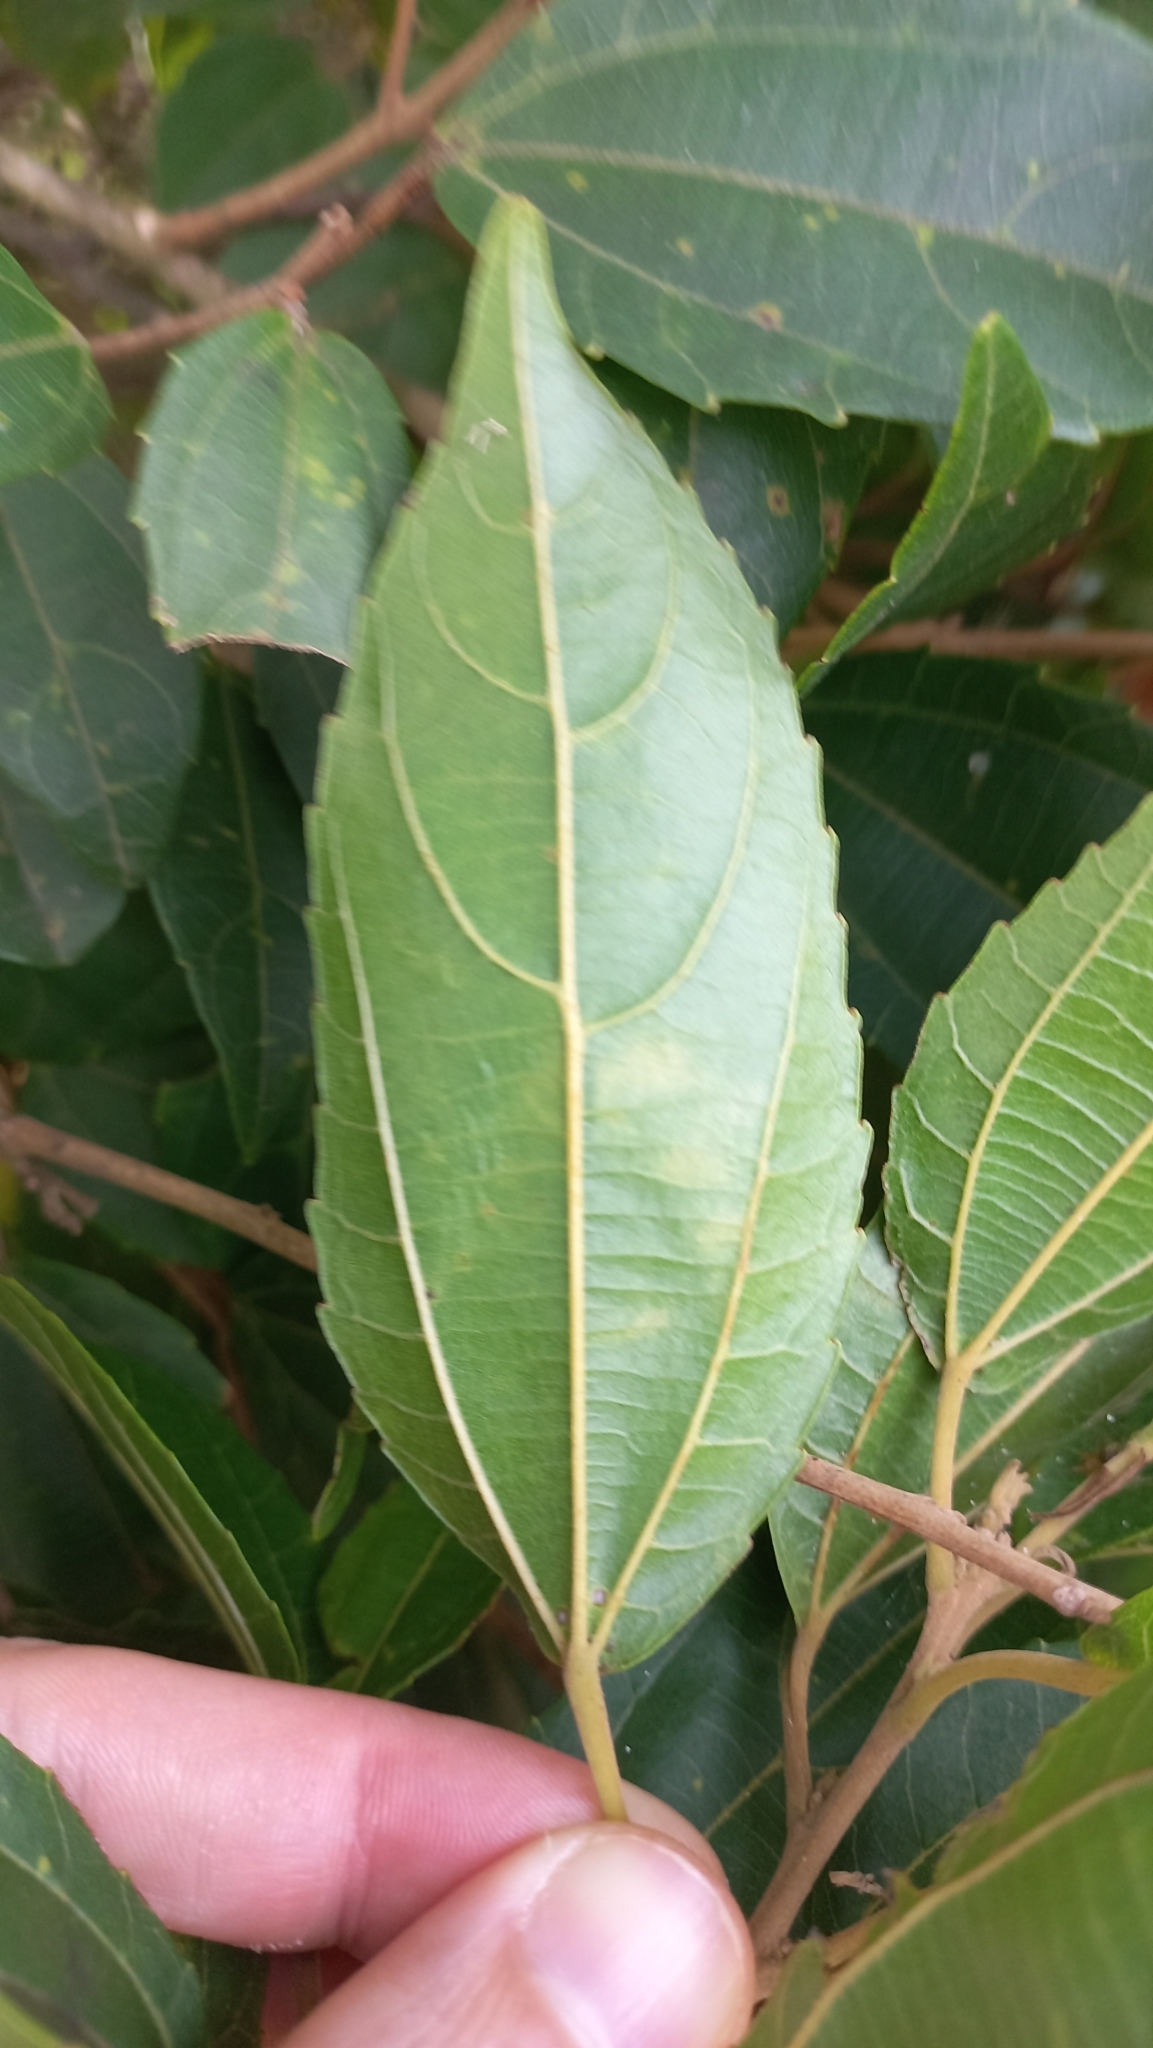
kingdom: Plantae
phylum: Tracheophyta
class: Magnoliopsida
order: Malpighiales
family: Euphorbiaceae
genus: Alchornea
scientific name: Alchornea triplinervia
